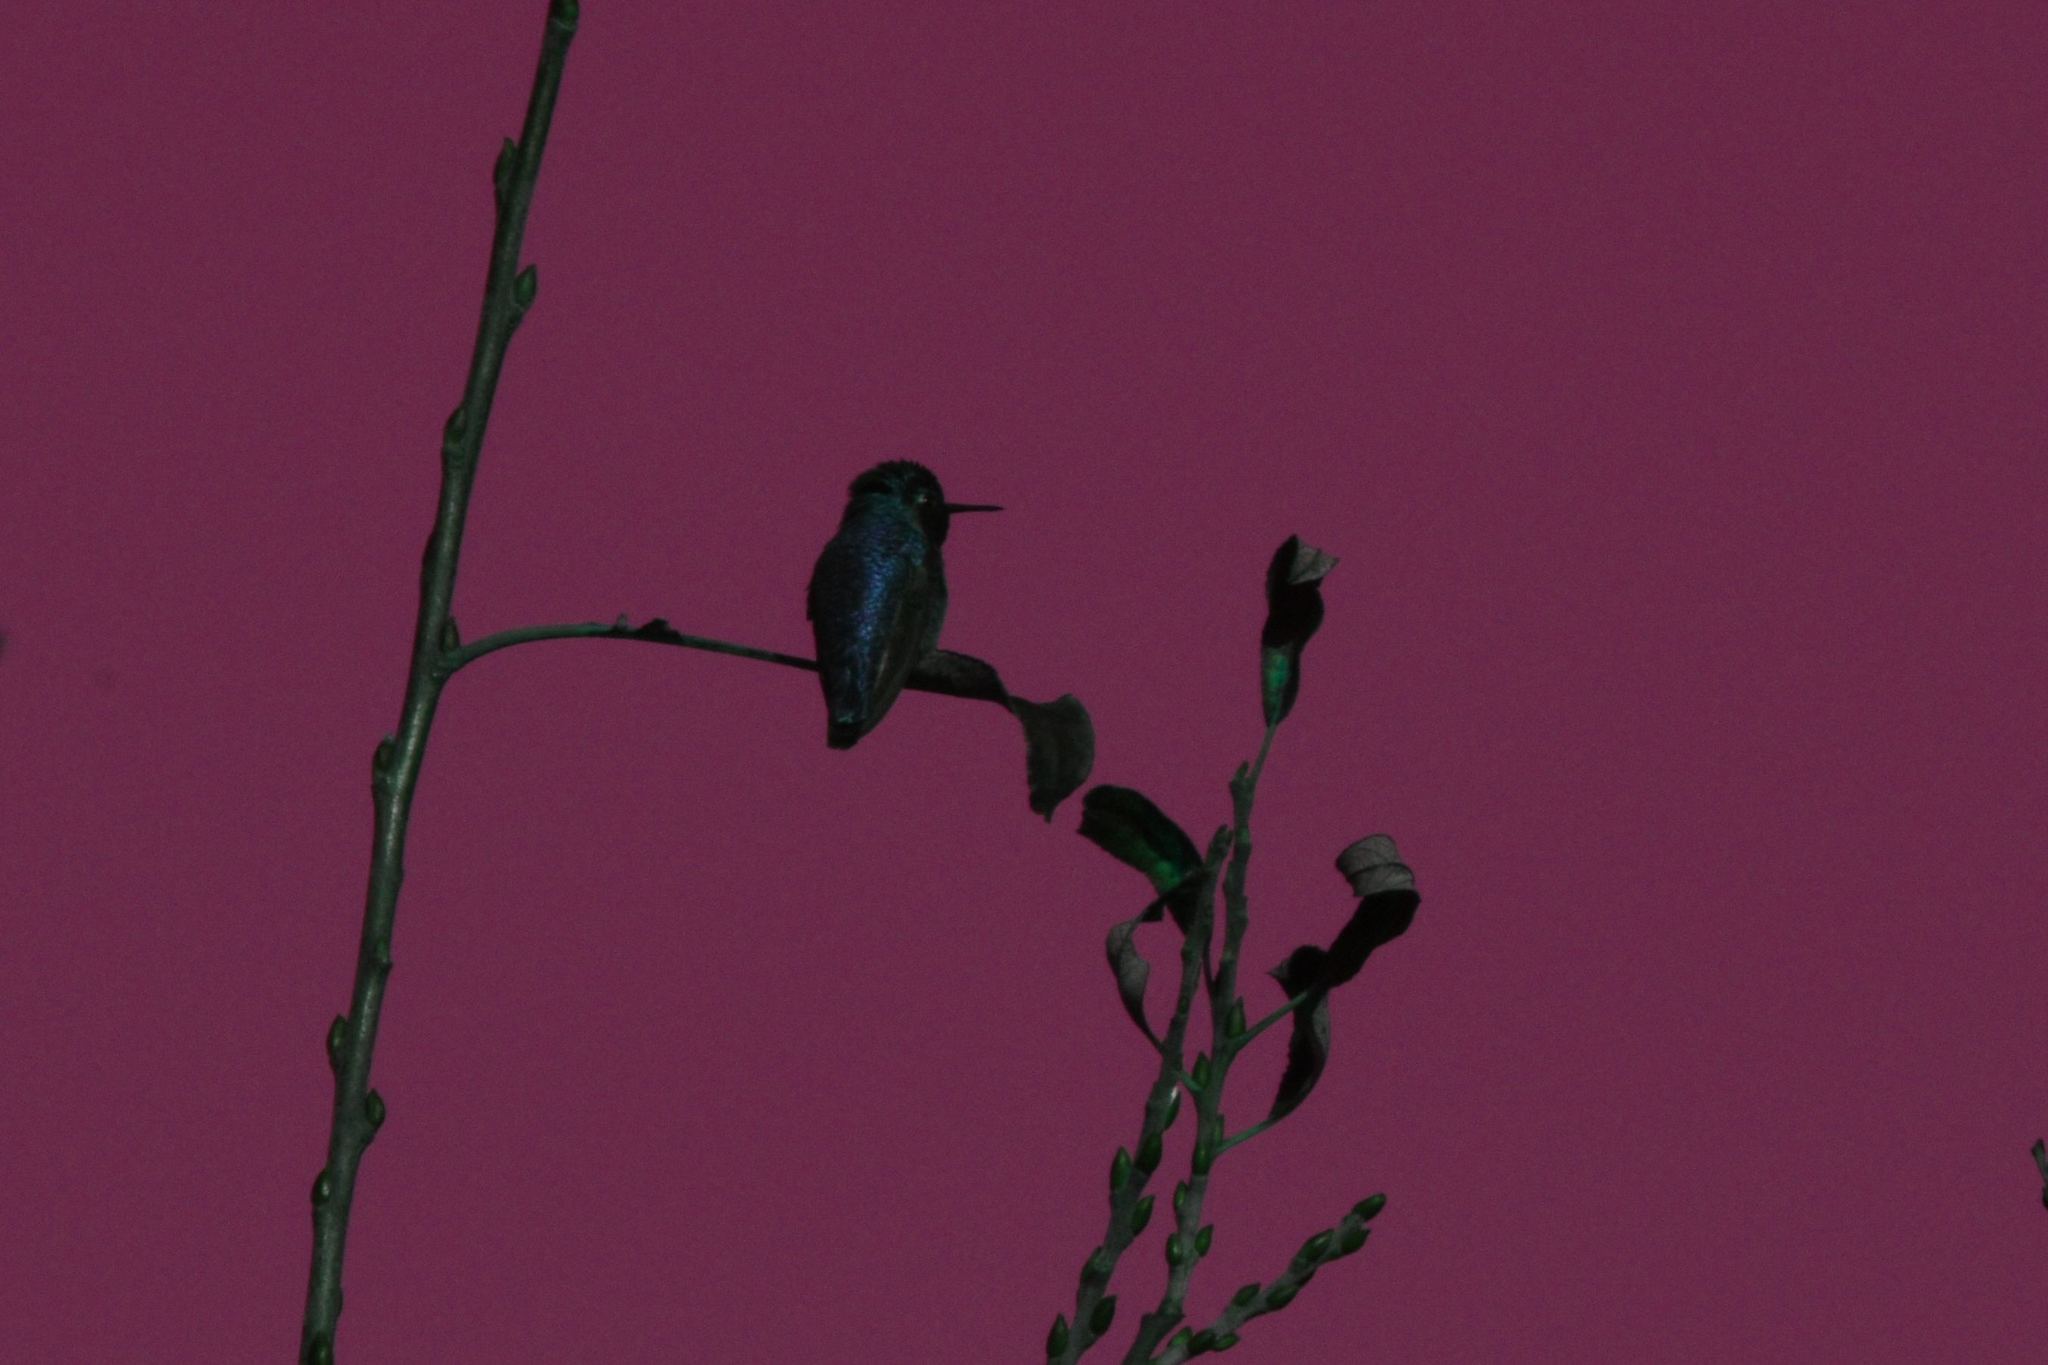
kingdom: Animalia
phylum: Chordata
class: Aves
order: Apodiformes
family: Trochilidae
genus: Calypte
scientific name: Calypte anna
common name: Anna's hummingbird
